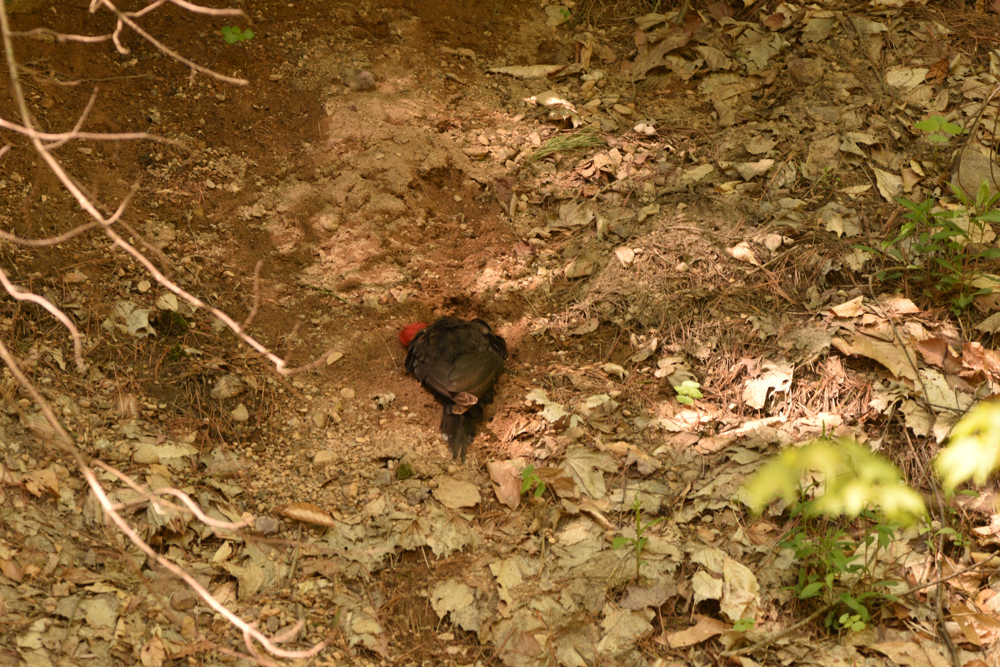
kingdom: Animalia
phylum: Chordata
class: Aves
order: Piciformes
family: Picidae
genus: Dryocopus
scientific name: Dryocopus pileatus
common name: Pileated woodpecker
